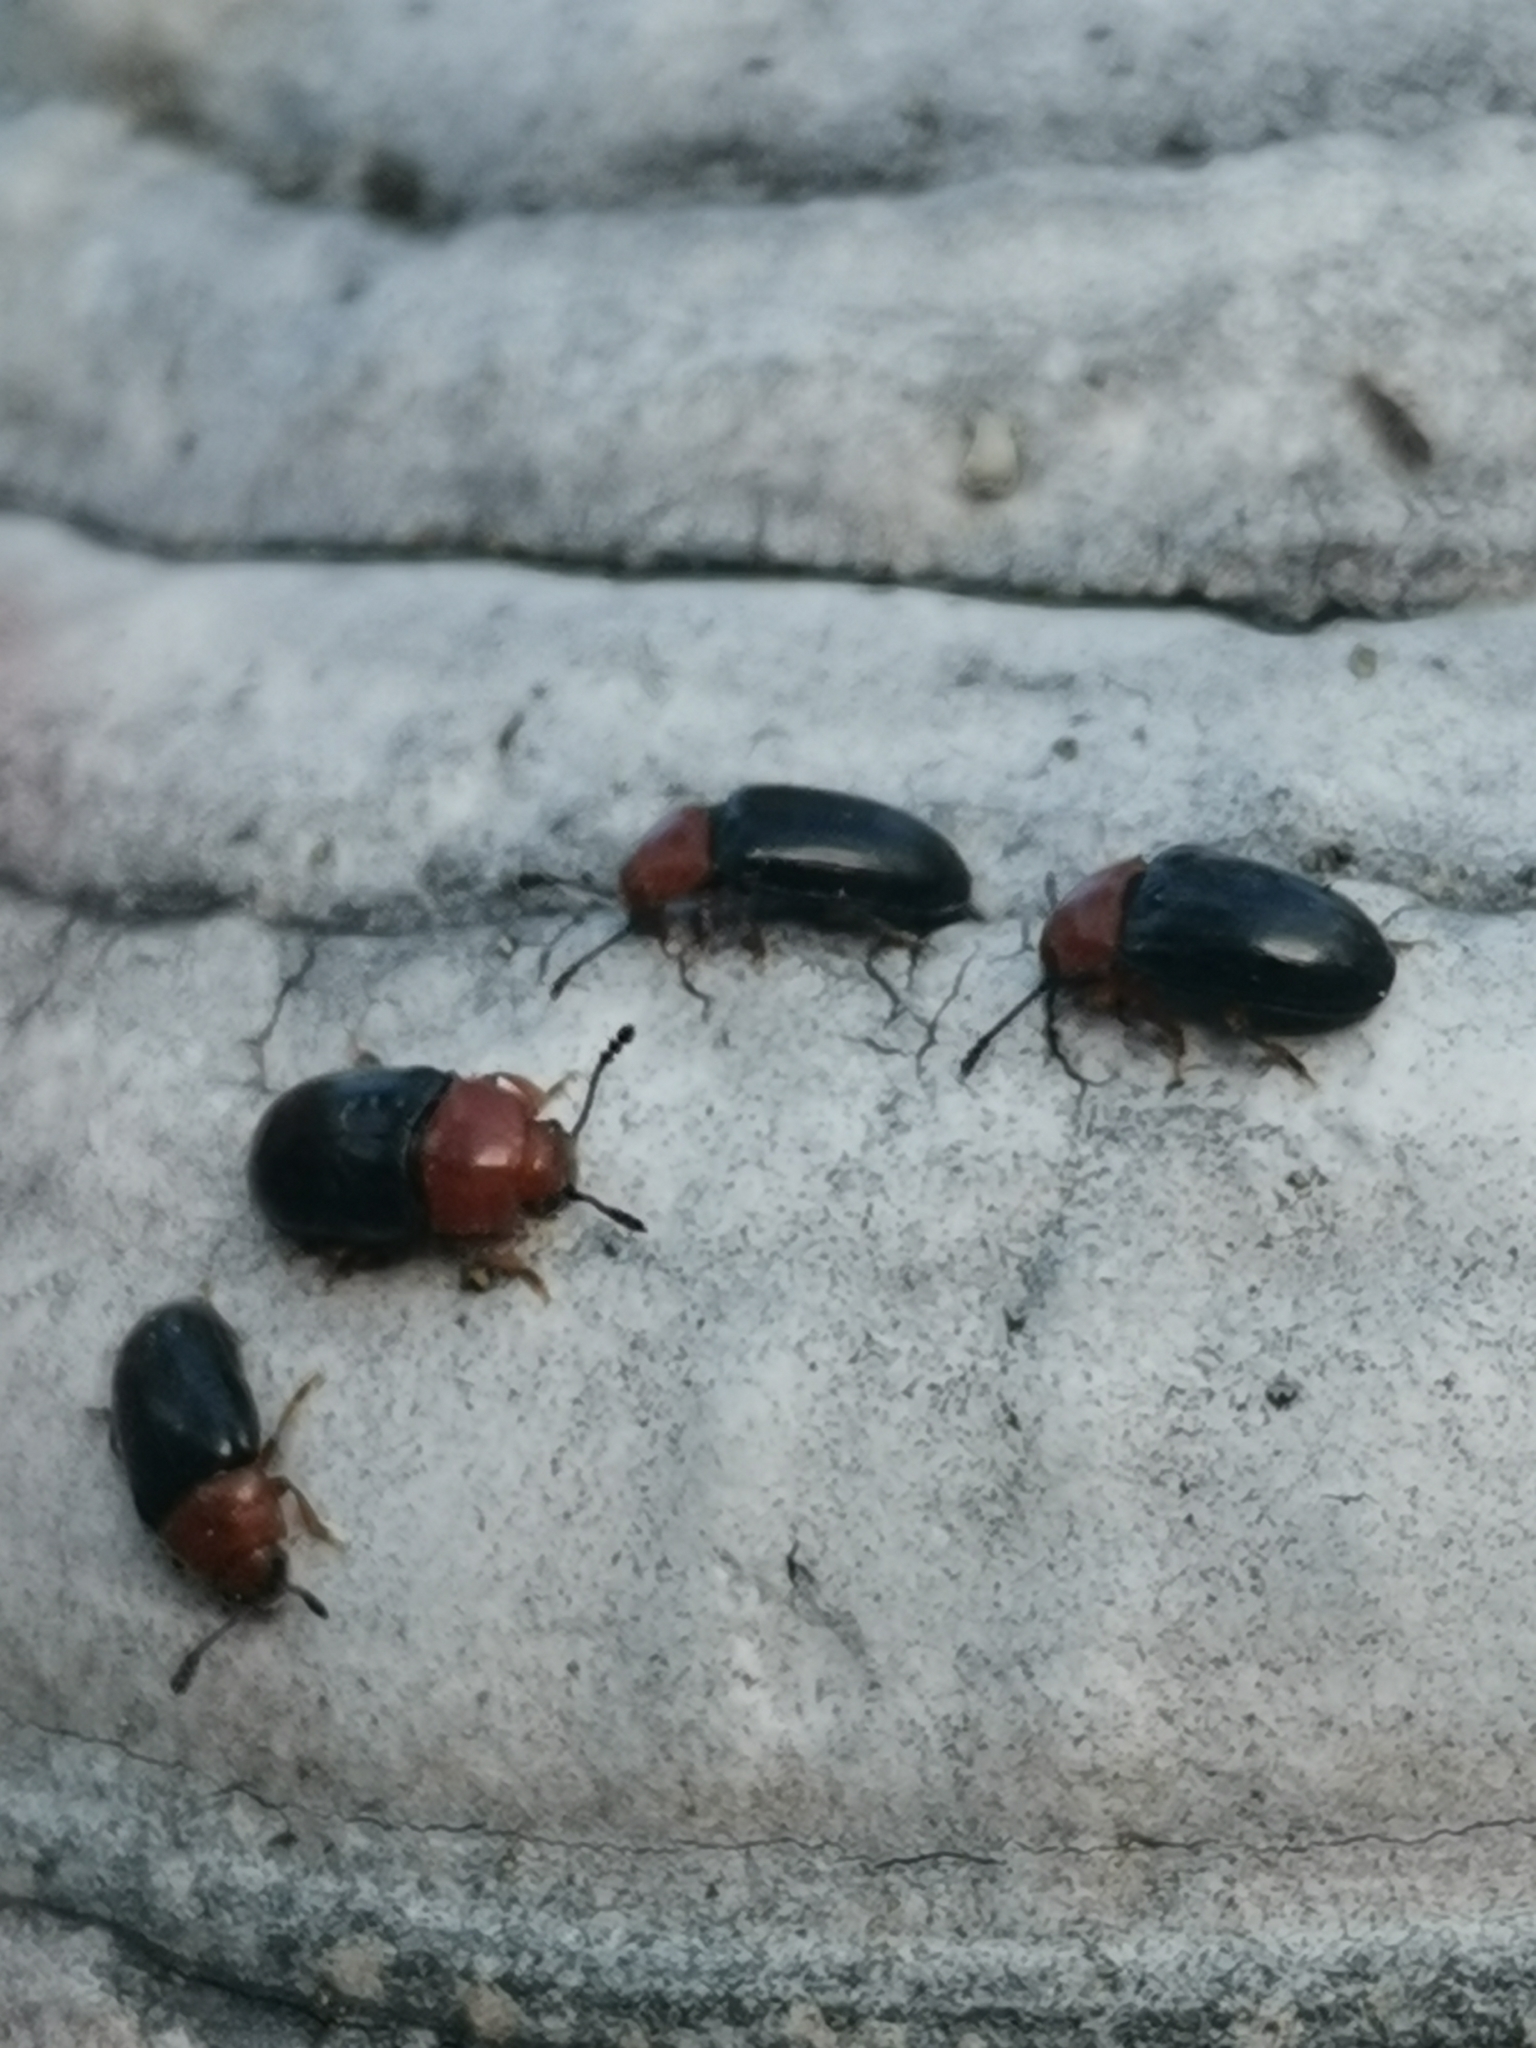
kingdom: Animalia
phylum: Arthropoda
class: Insecta
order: Coleoptera
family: Erotylidae
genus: Triplax
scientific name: Triplax russica
